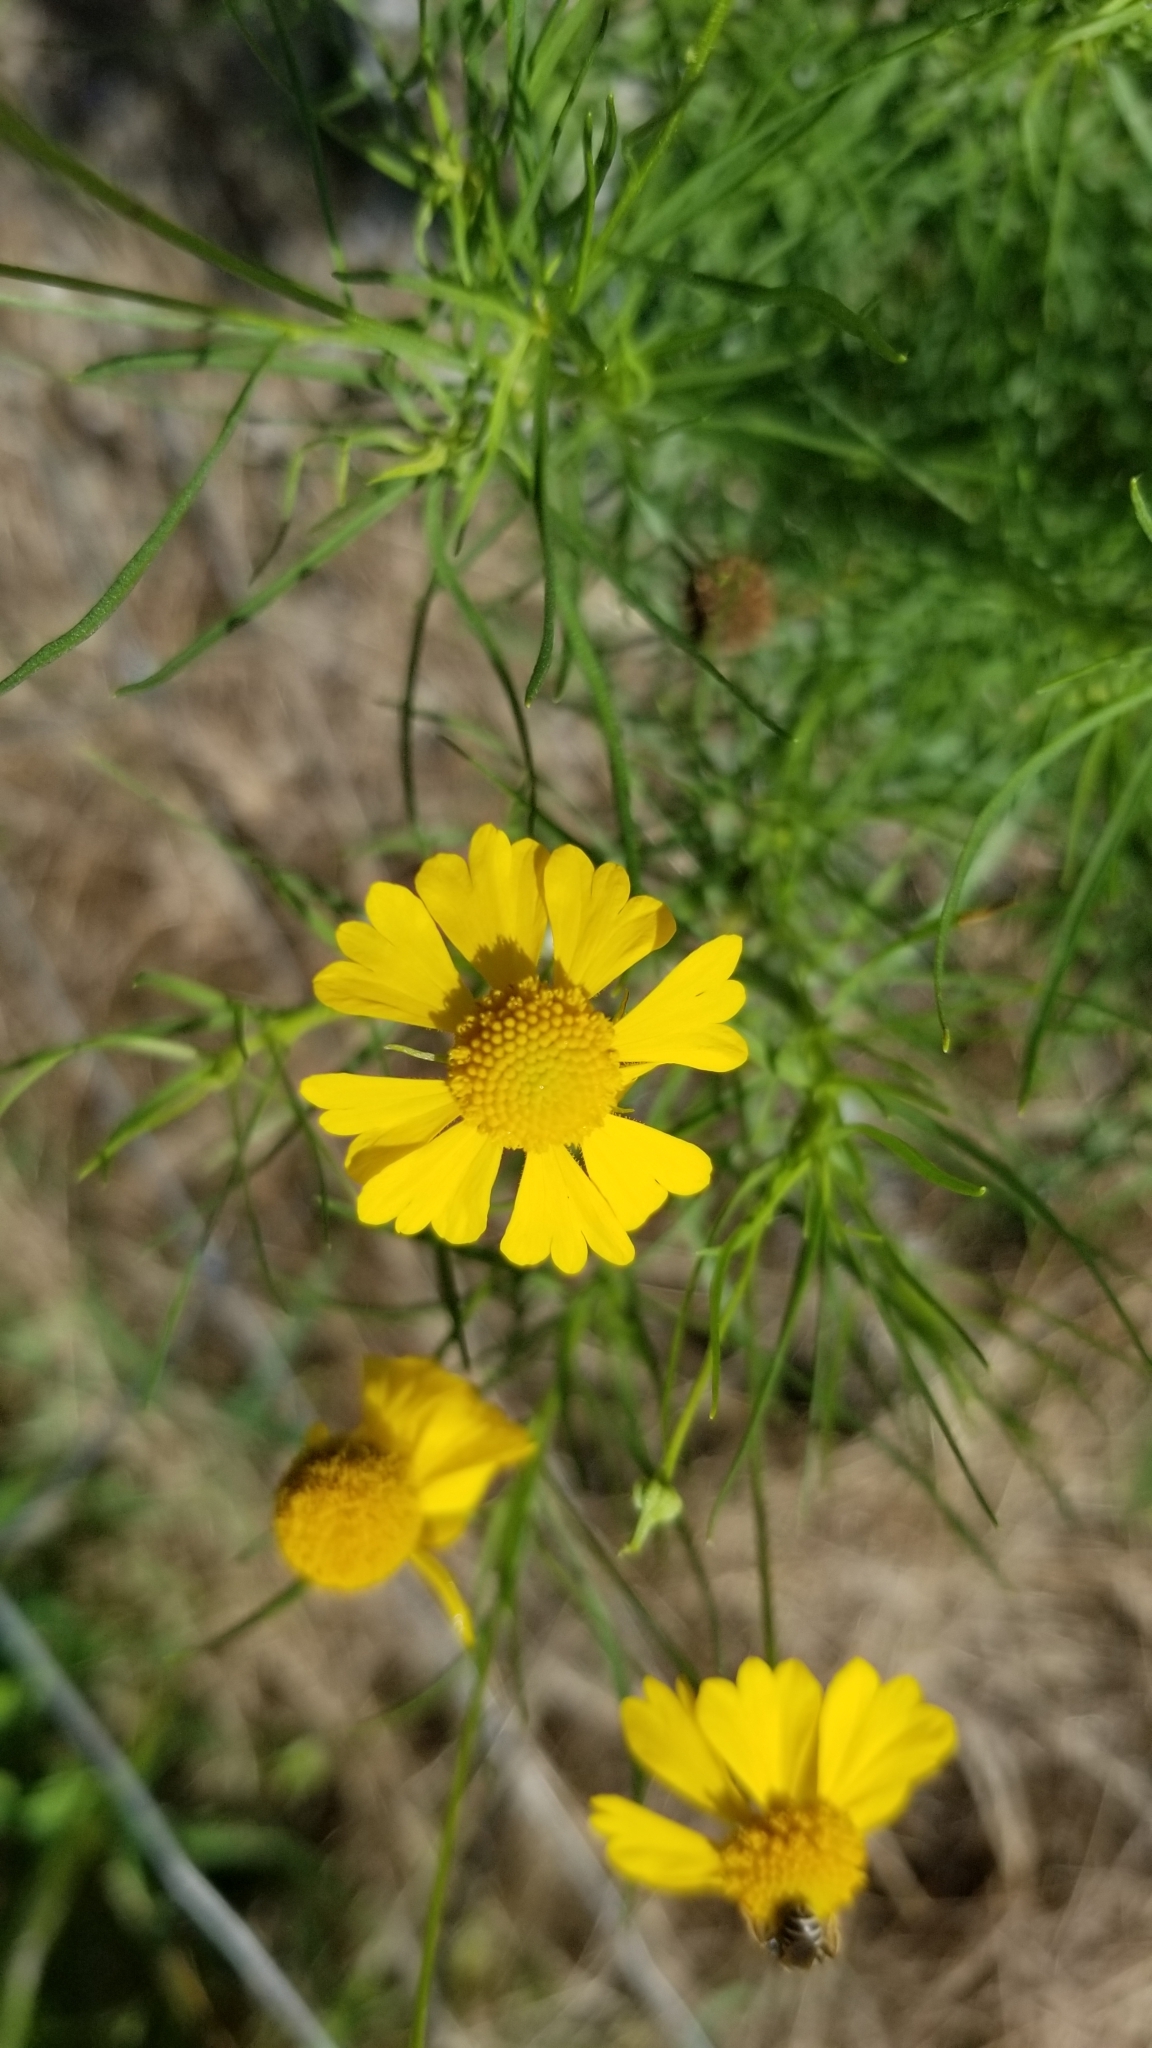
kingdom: Plantae
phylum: Tracheophyta
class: Magnoliopsida
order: Asterales
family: Asteraceae
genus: Helenium
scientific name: Helenium amarum
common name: Bitter sneezeweed
